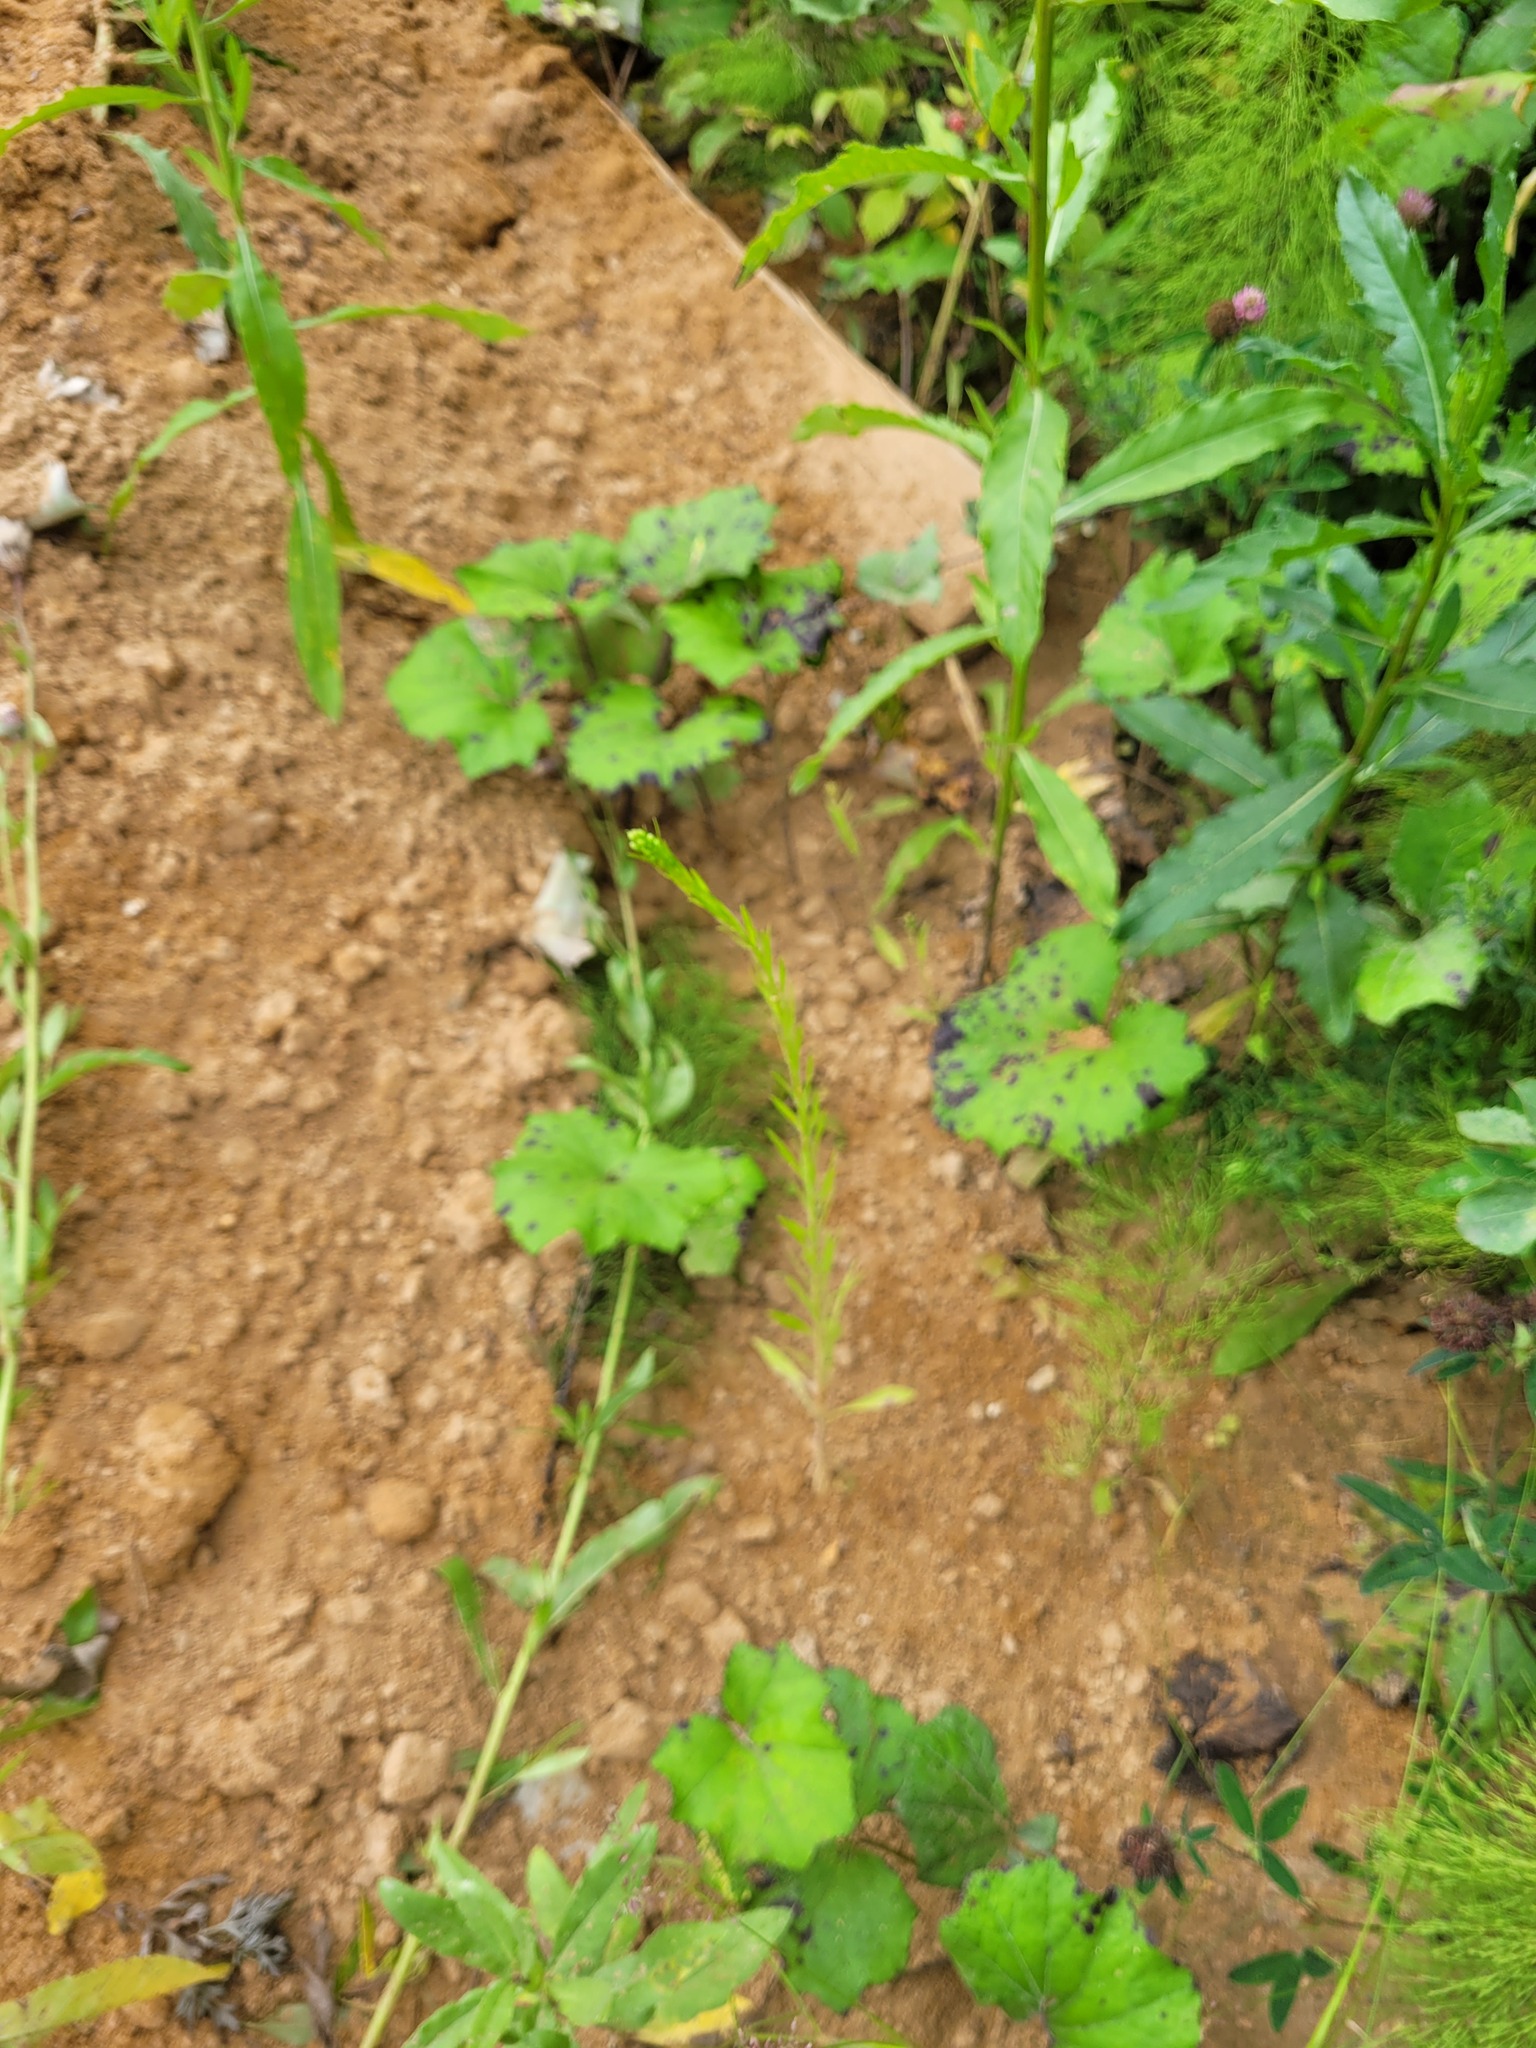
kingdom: Plantae
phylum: Tracheophyta
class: Magnoliopsida
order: Asterales
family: Asteraceae
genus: Erigeron
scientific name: Erigeron canadensis
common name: Canadian fleabane
